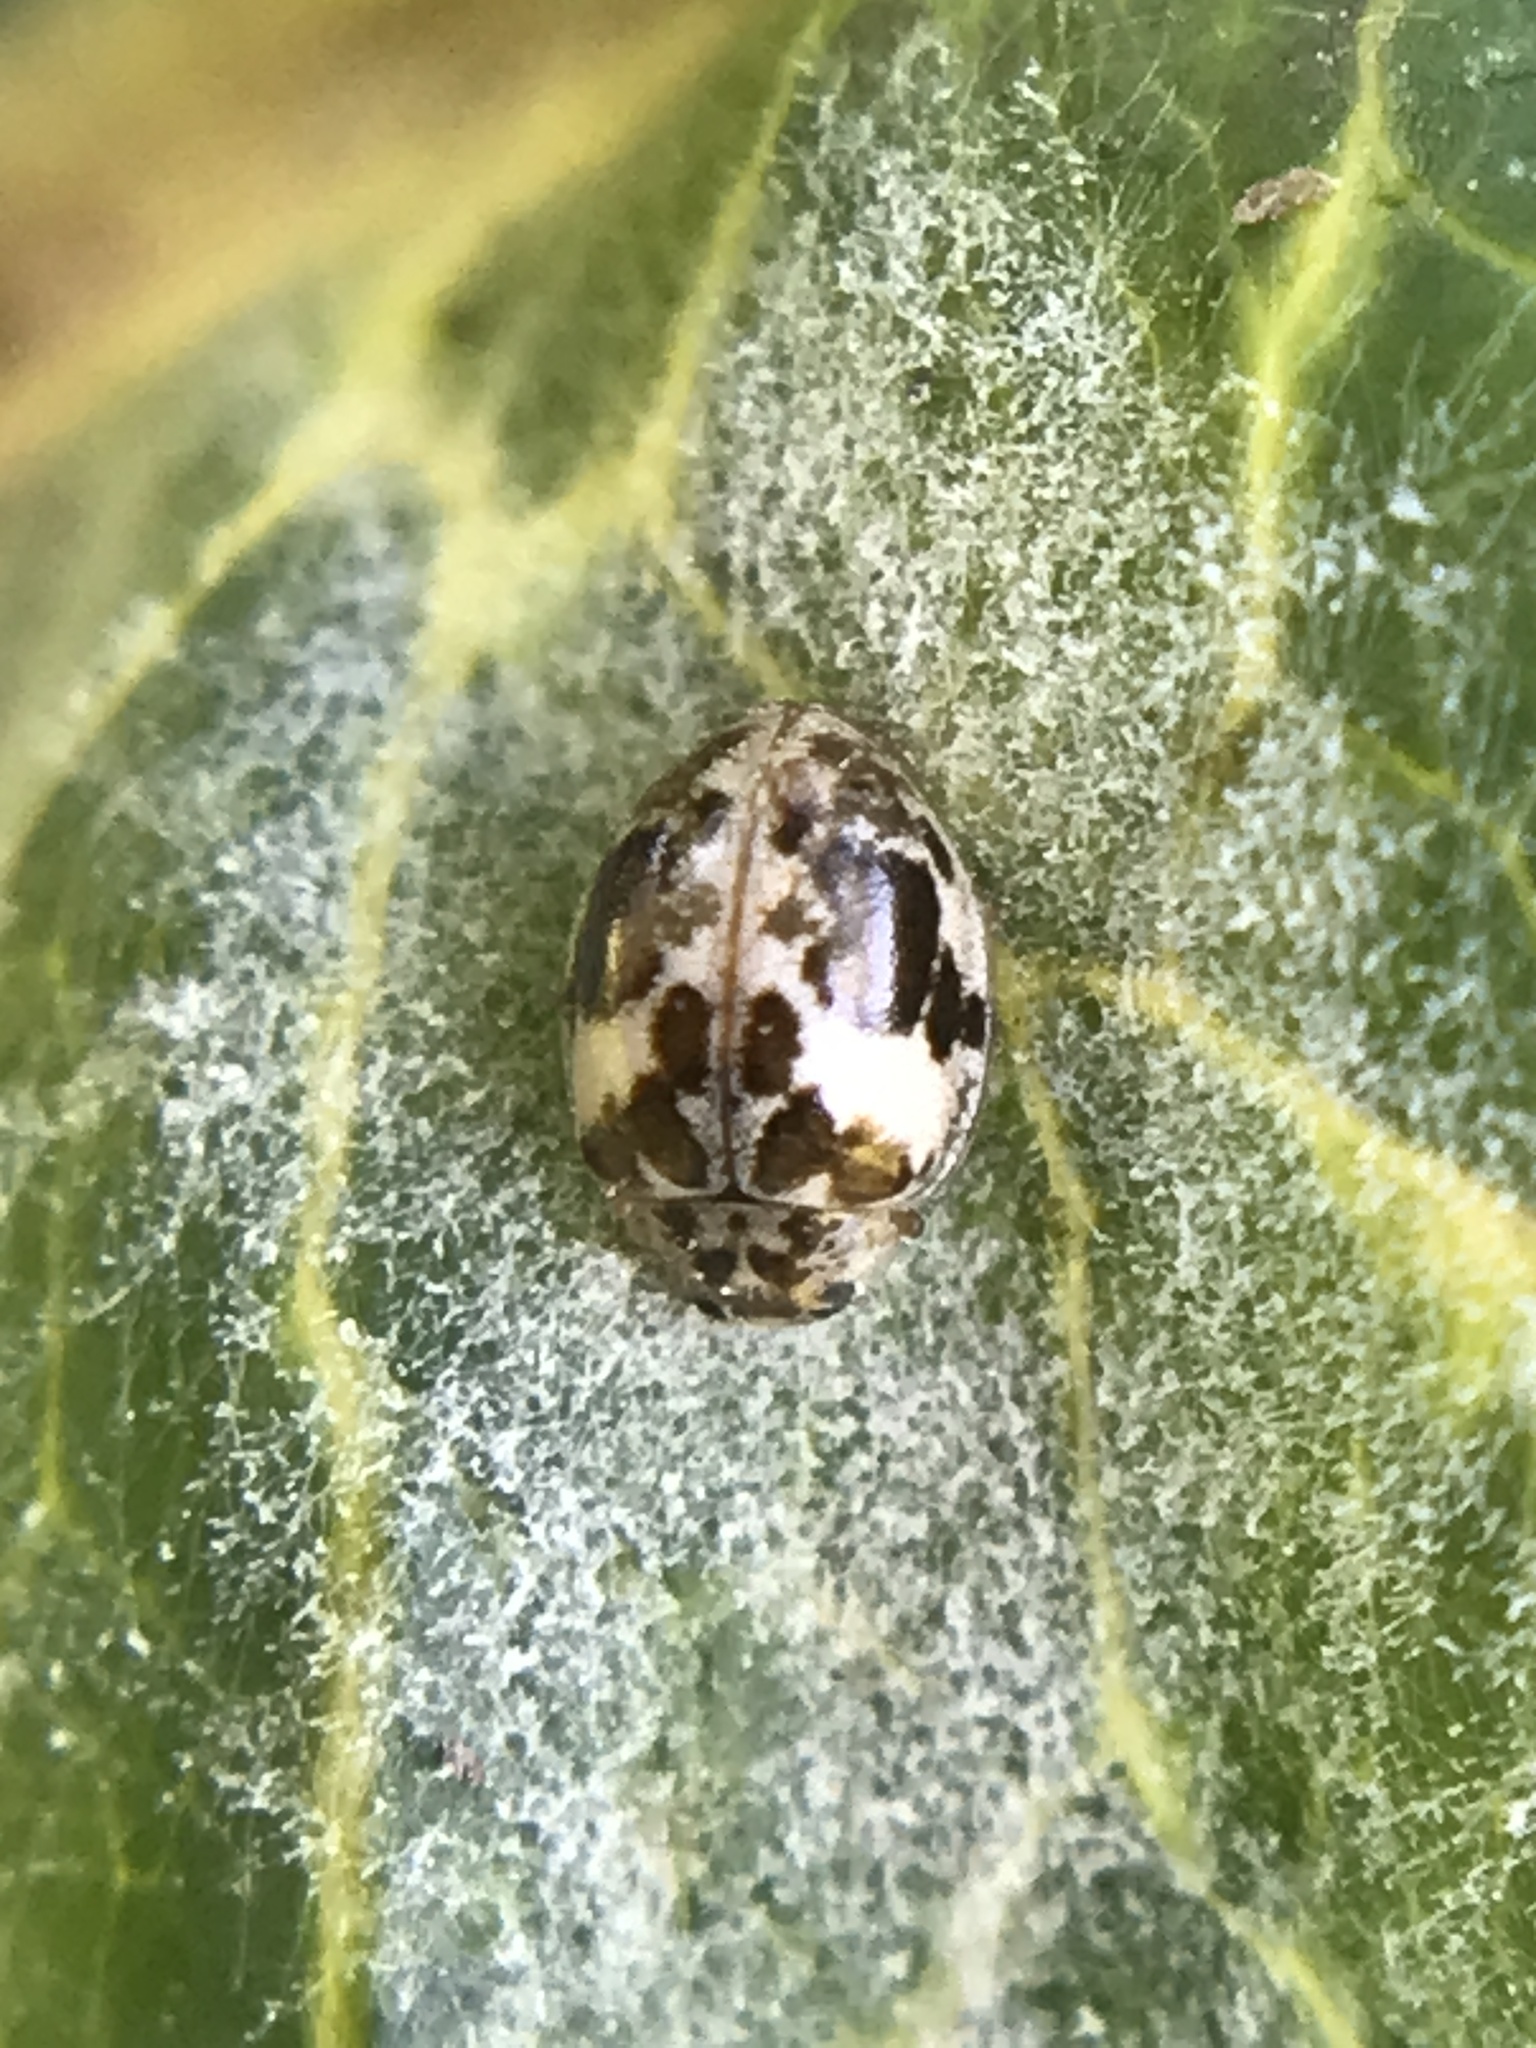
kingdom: Animalia
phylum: Arthropoda
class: Insecta
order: Coleoptera
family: Coccinellidae
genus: Psyllobora
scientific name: Psyllobora
